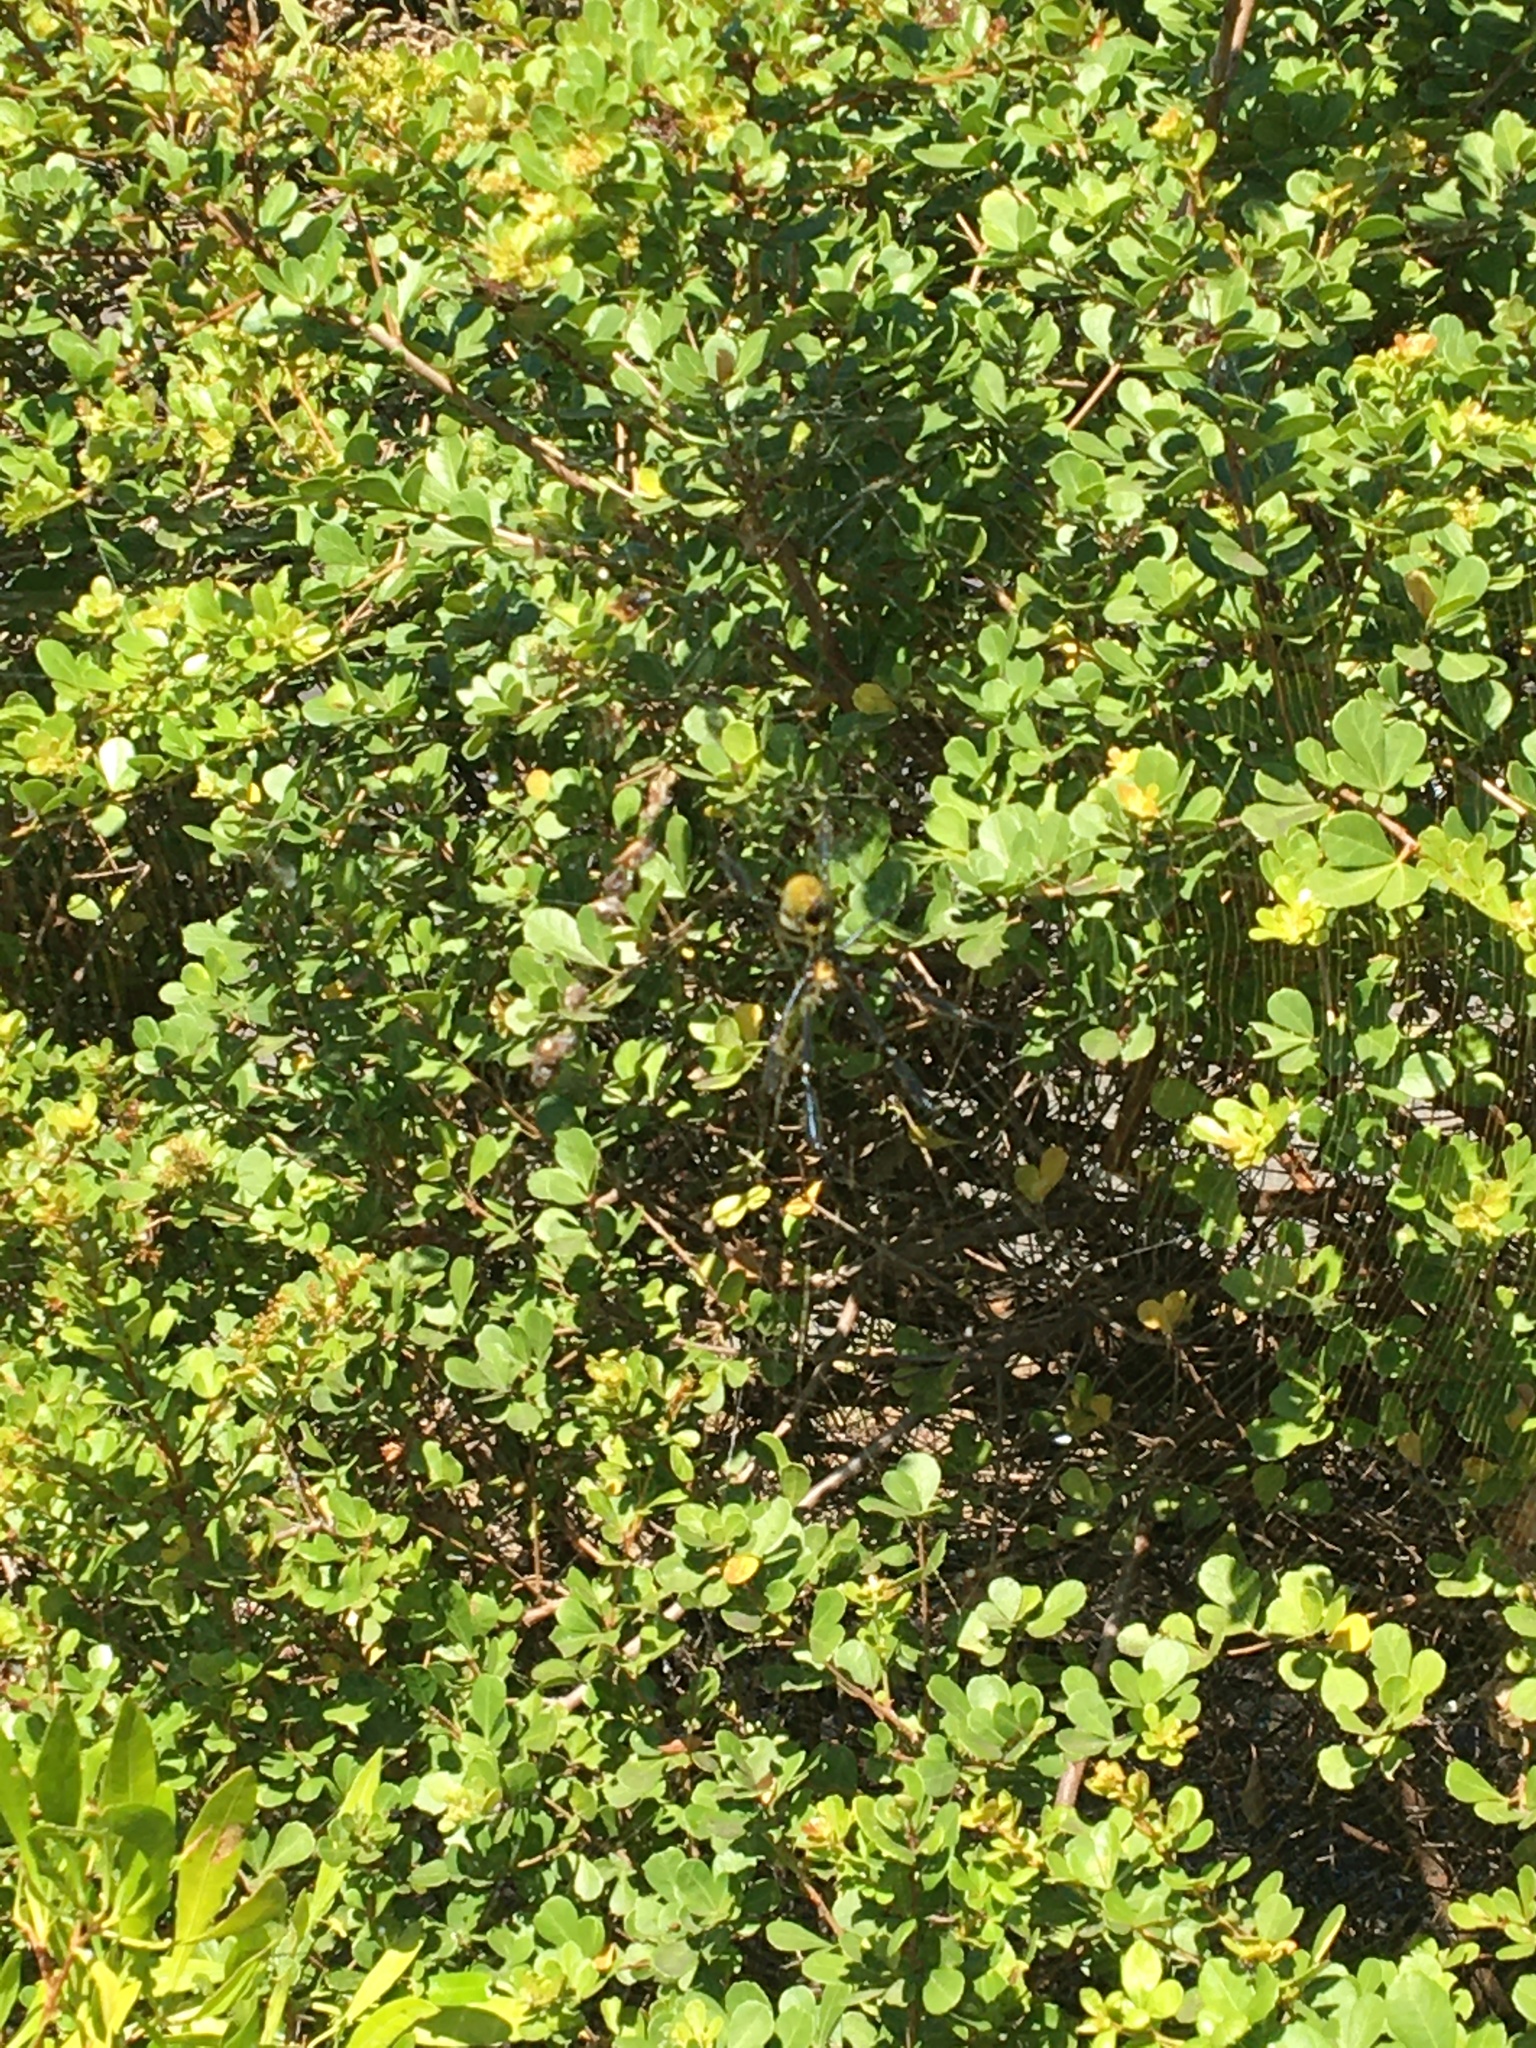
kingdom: Animalia
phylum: Arthropoda
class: Arachnida
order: Araneae
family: Araneidae
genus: Trichonephila
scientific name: Trichonephila fenestrata
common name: Hairy golden orb weaver
